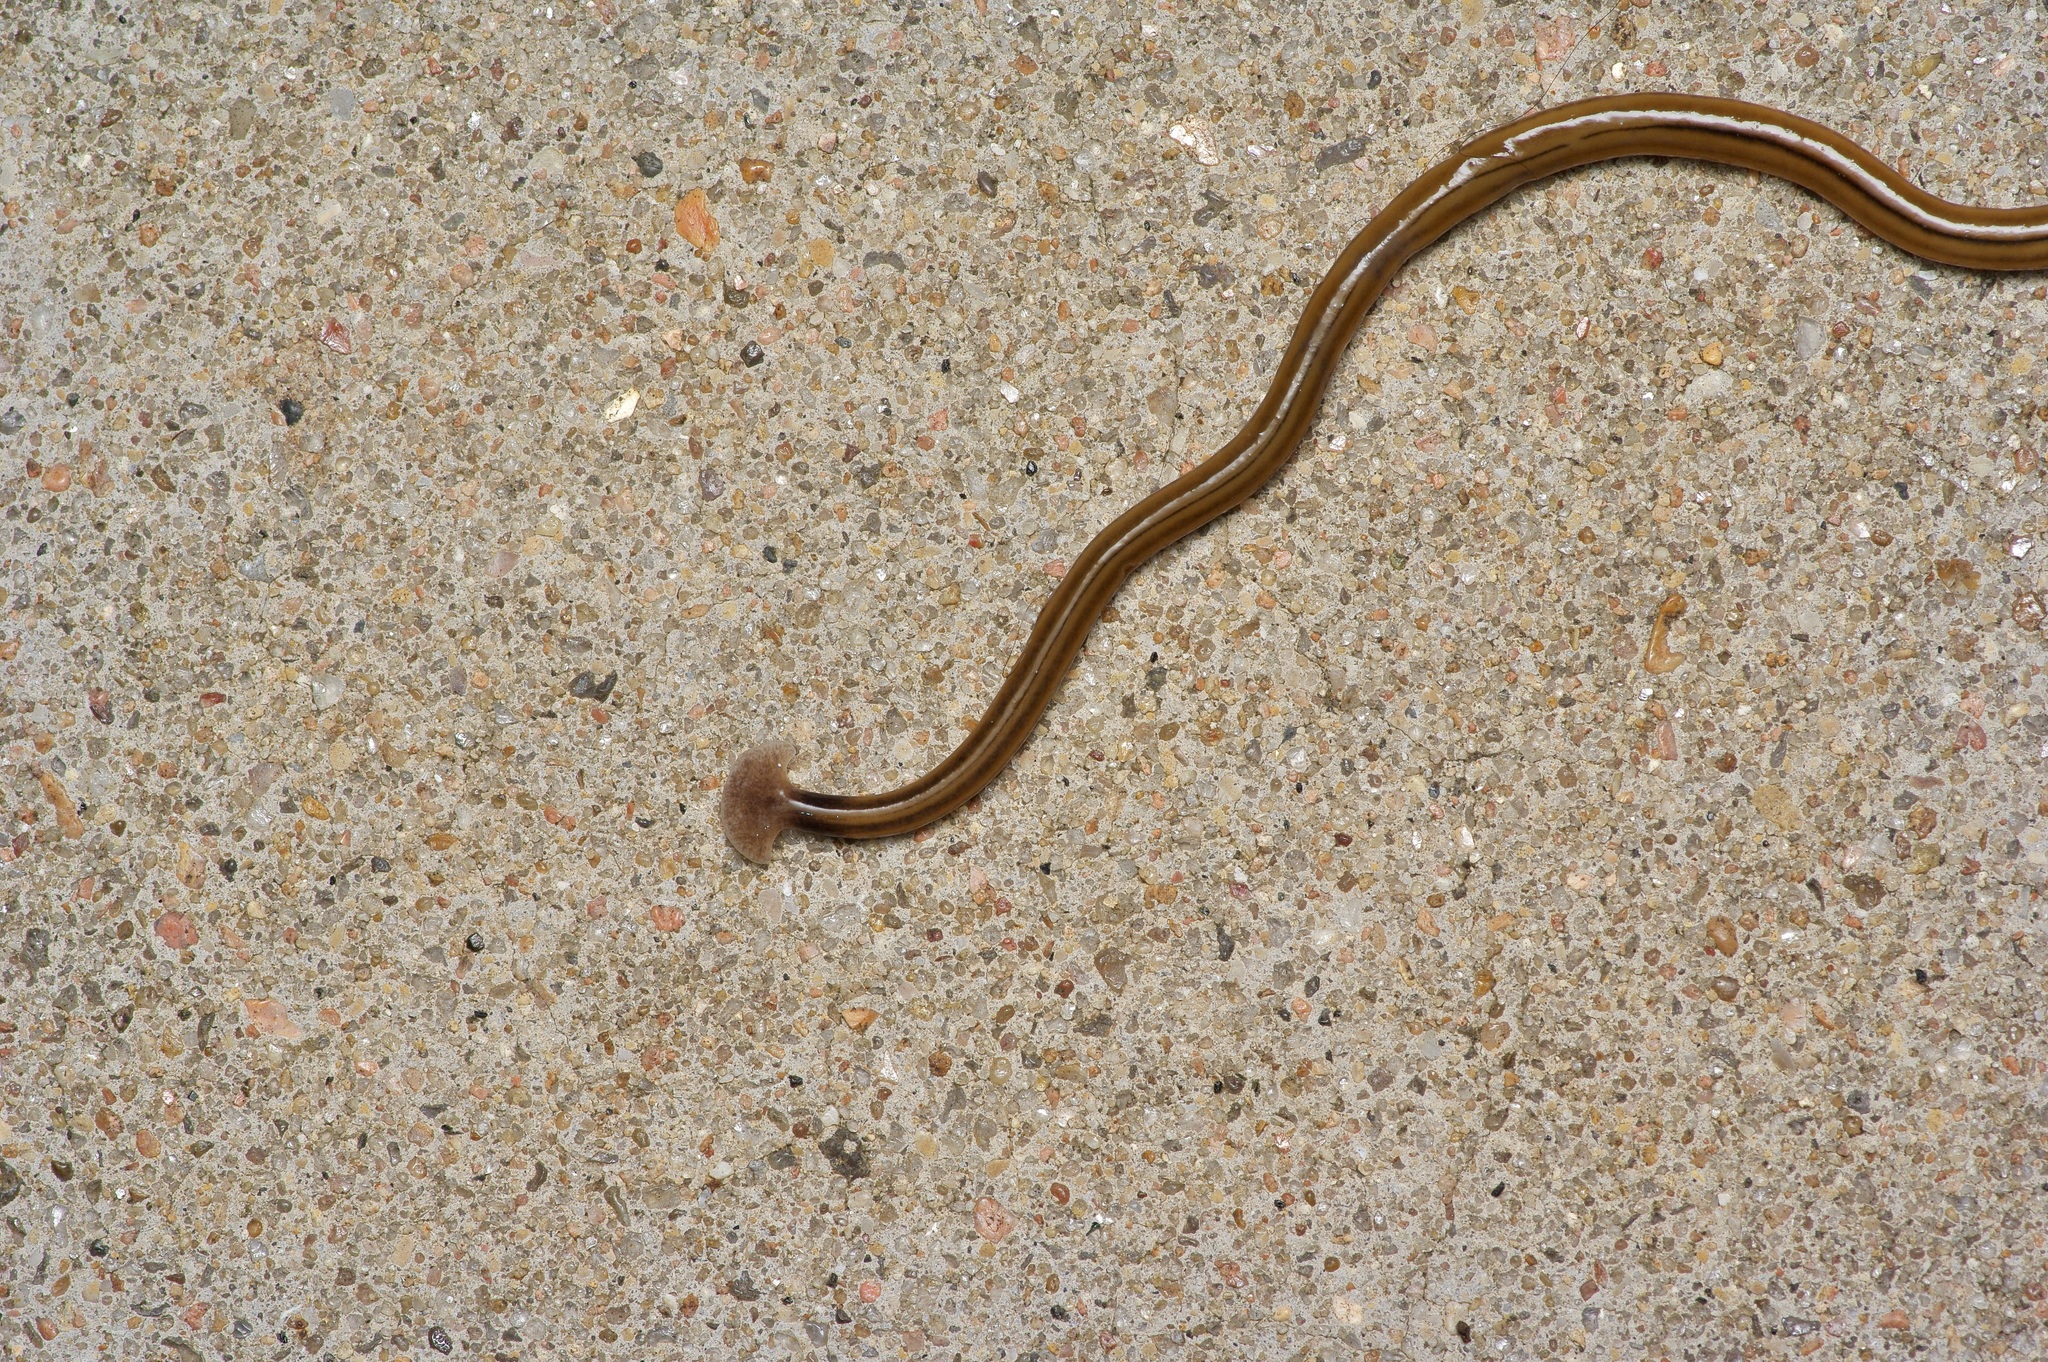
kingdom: Animalia
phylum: Platyhelminthes
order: Tricladida
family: Geoplanidae
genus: Bipalium
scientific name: Bipalium kewense
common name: Hammerhead flatworm
